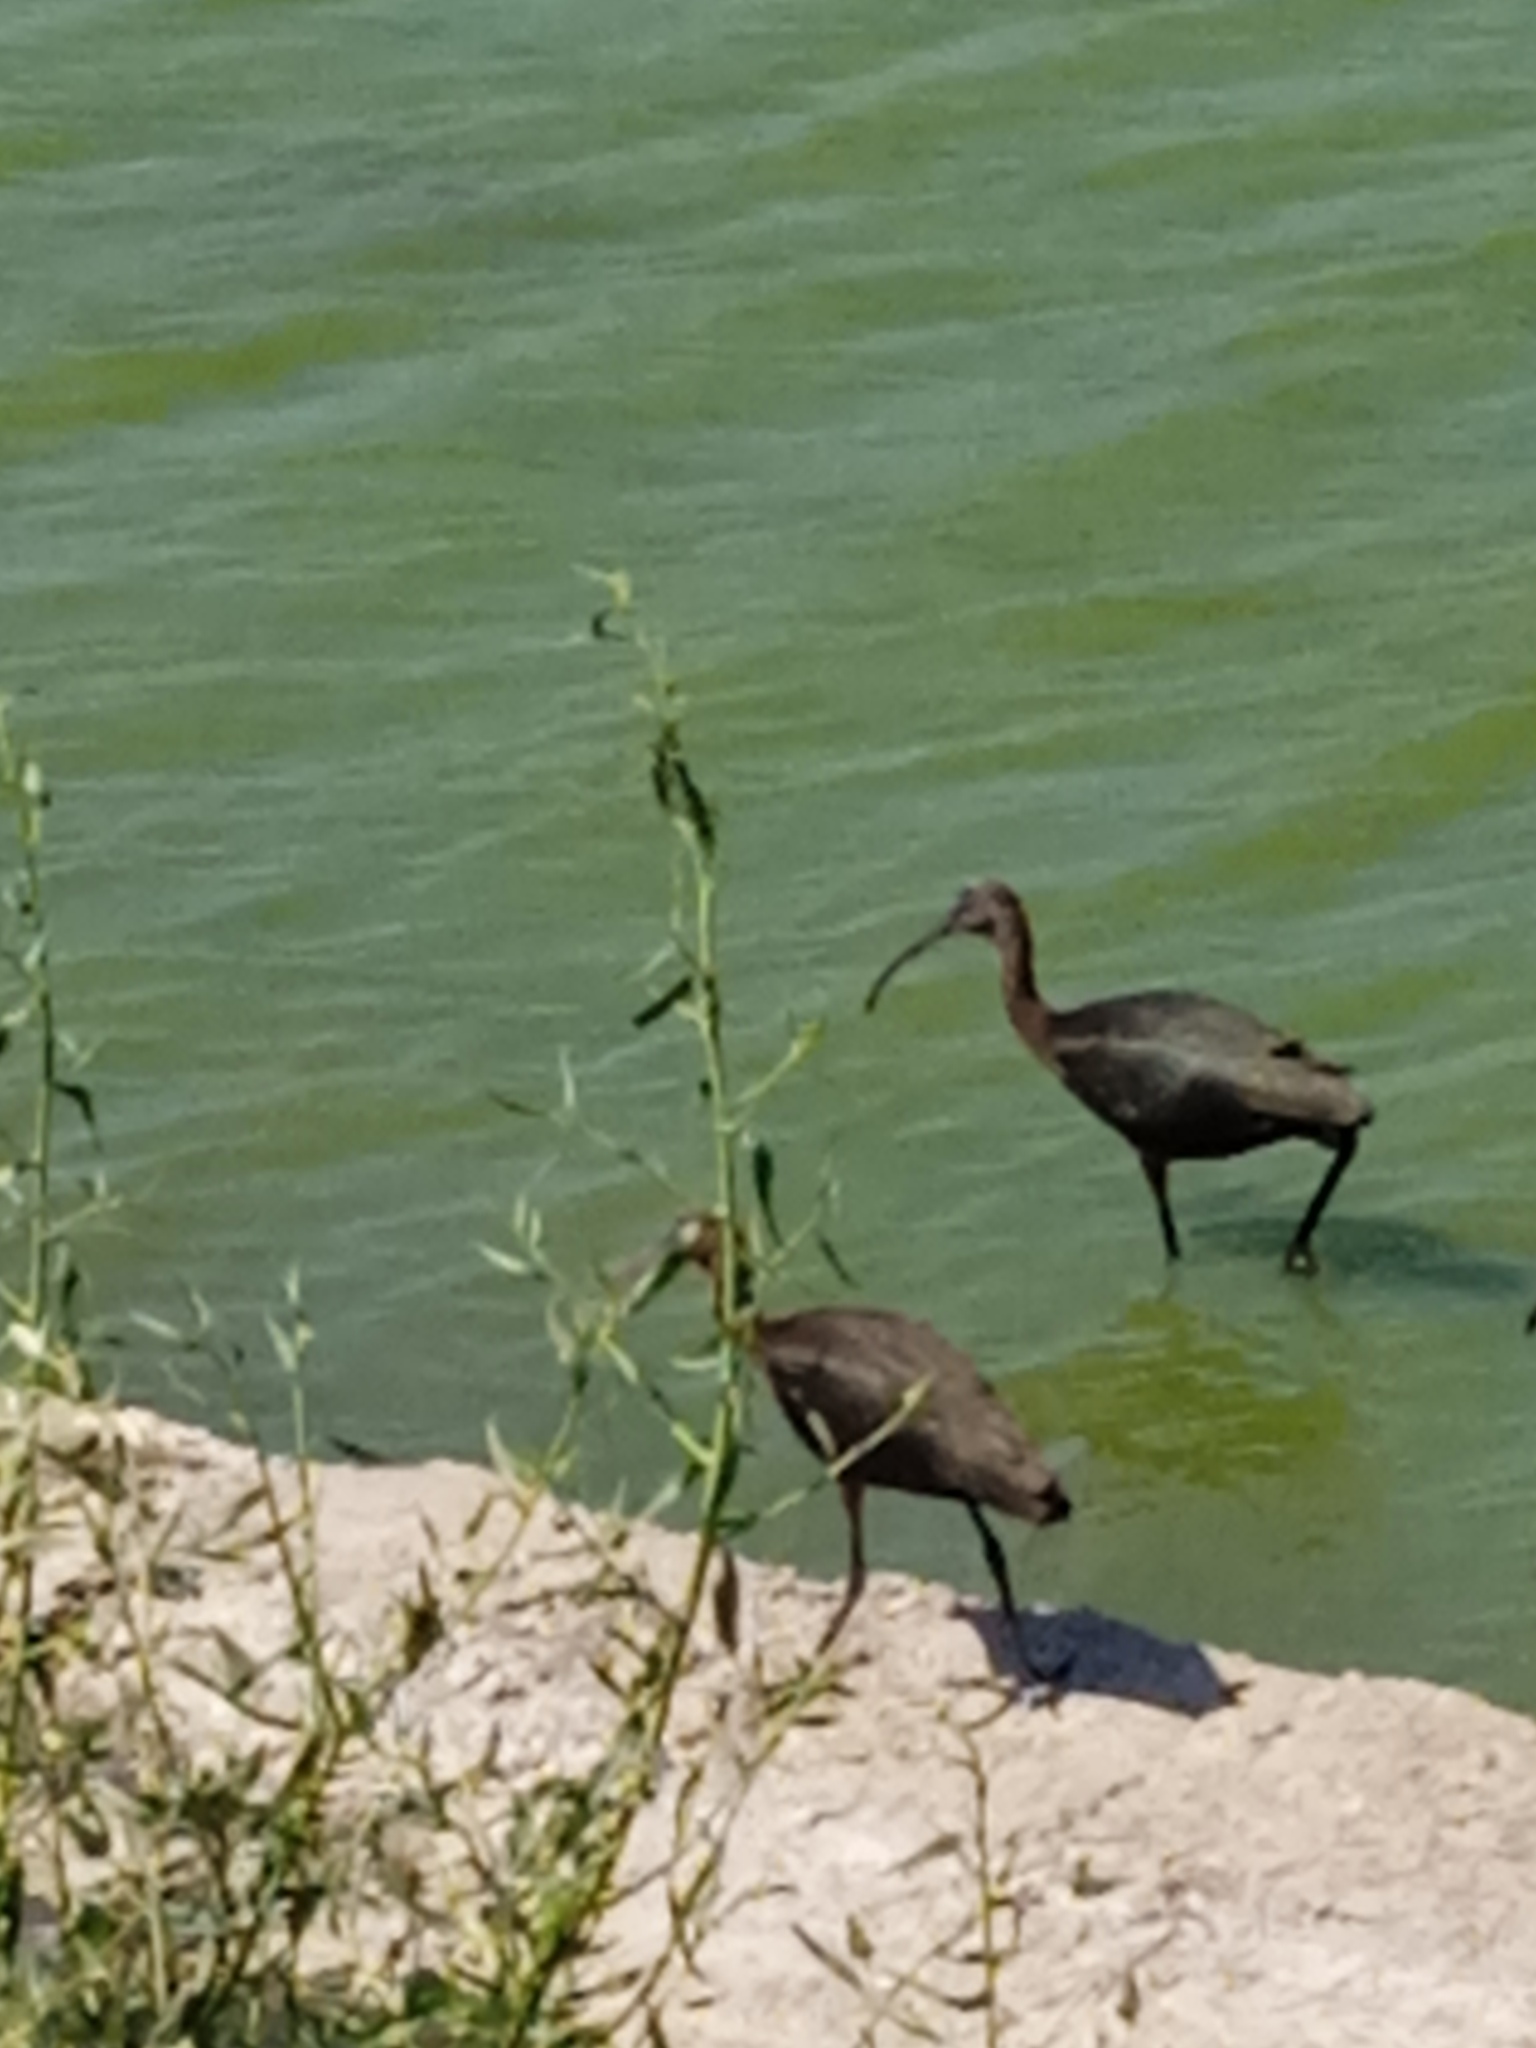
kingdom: Animalia
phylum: Chordata
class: Aves
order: Pelecaniformes
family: Threskiornithidae
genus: Plegadis
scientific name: Plegadis falcinellus
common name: Glossy ibis
